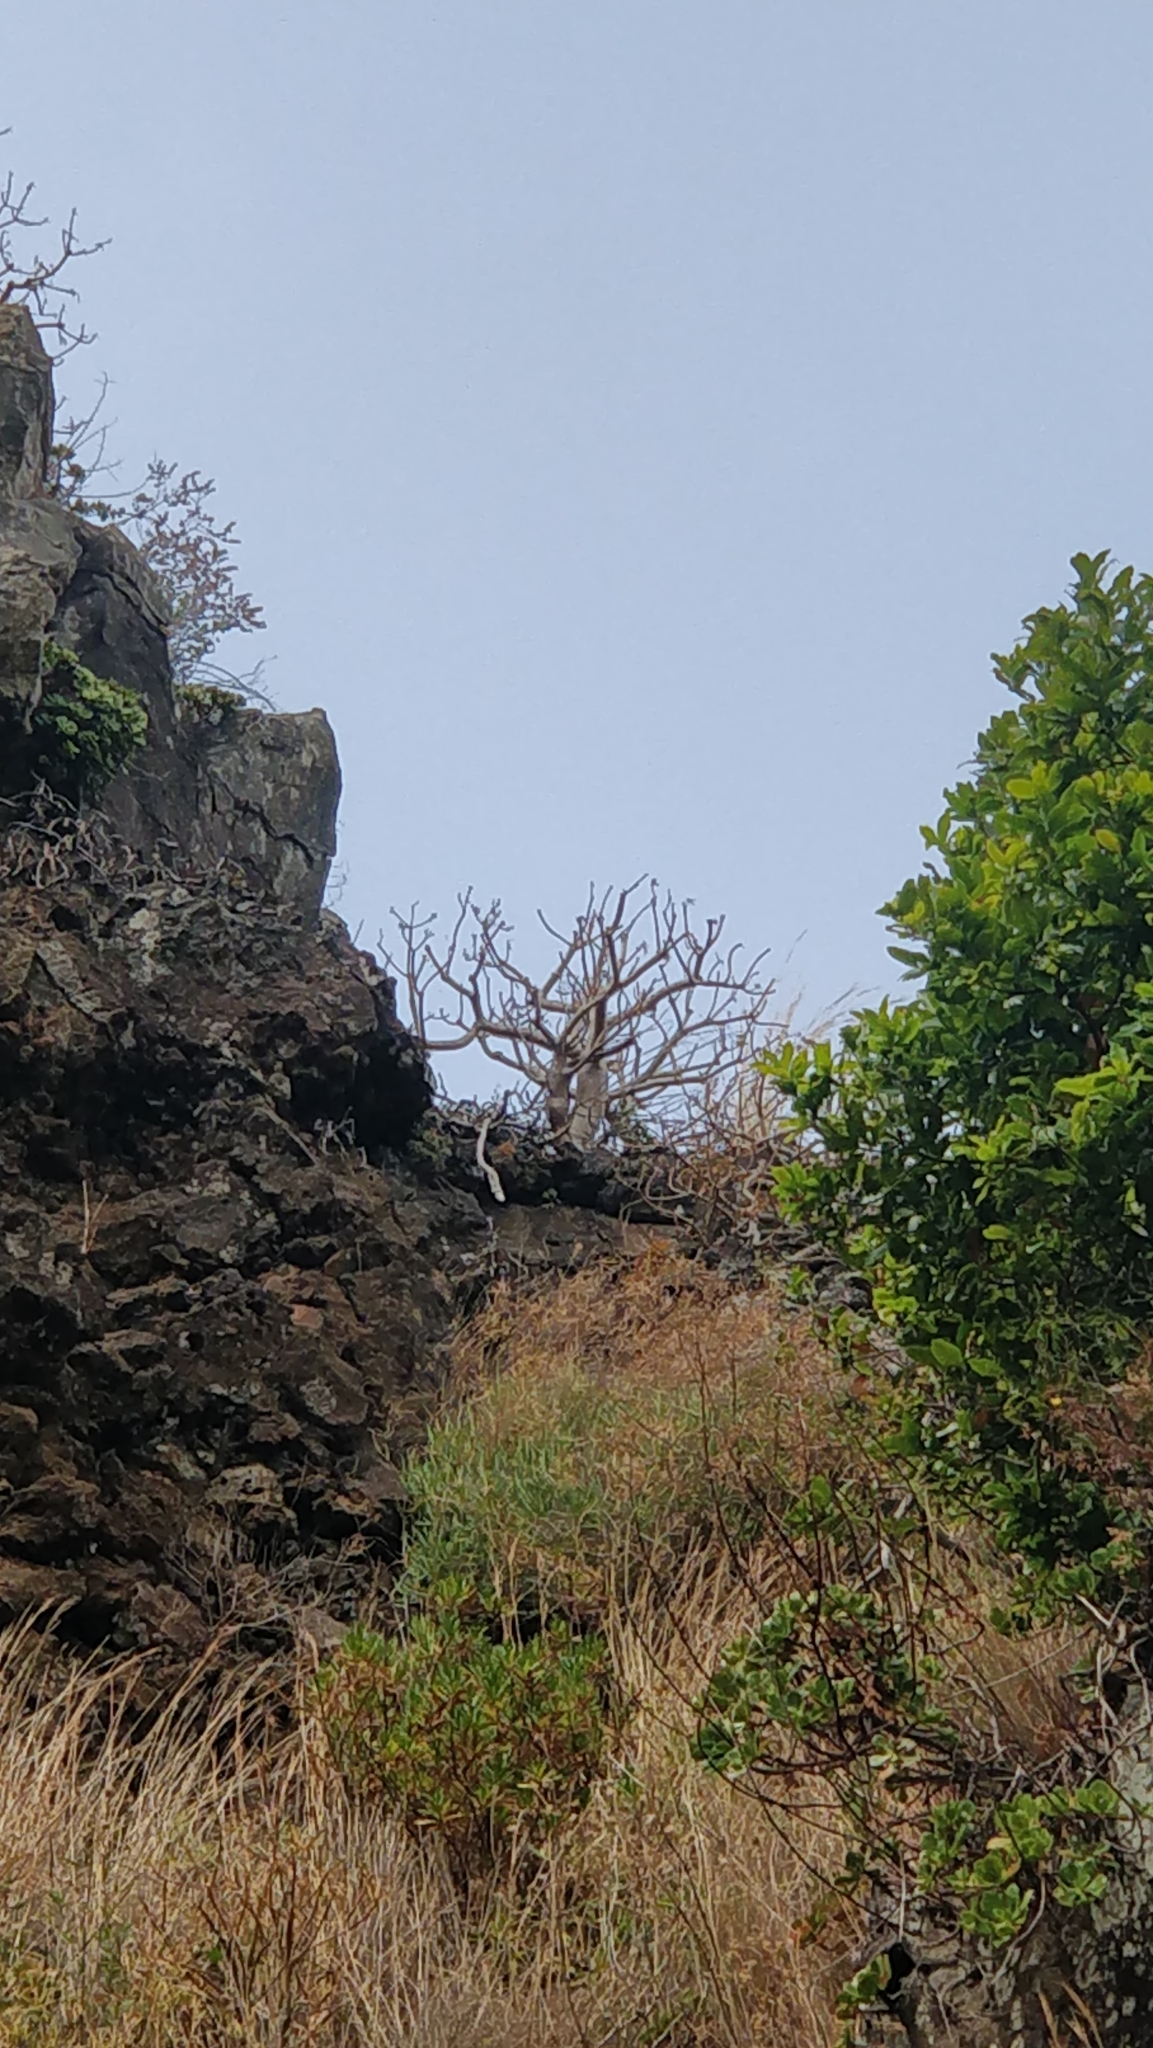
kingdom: Plantae
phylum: Tracheophyta
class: Magnoliopsida
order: Malpighiales
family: Euphorbiaceae
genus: Euphorbia
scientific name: Euphorbia piscatoria
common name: Fish-stunning spurge
